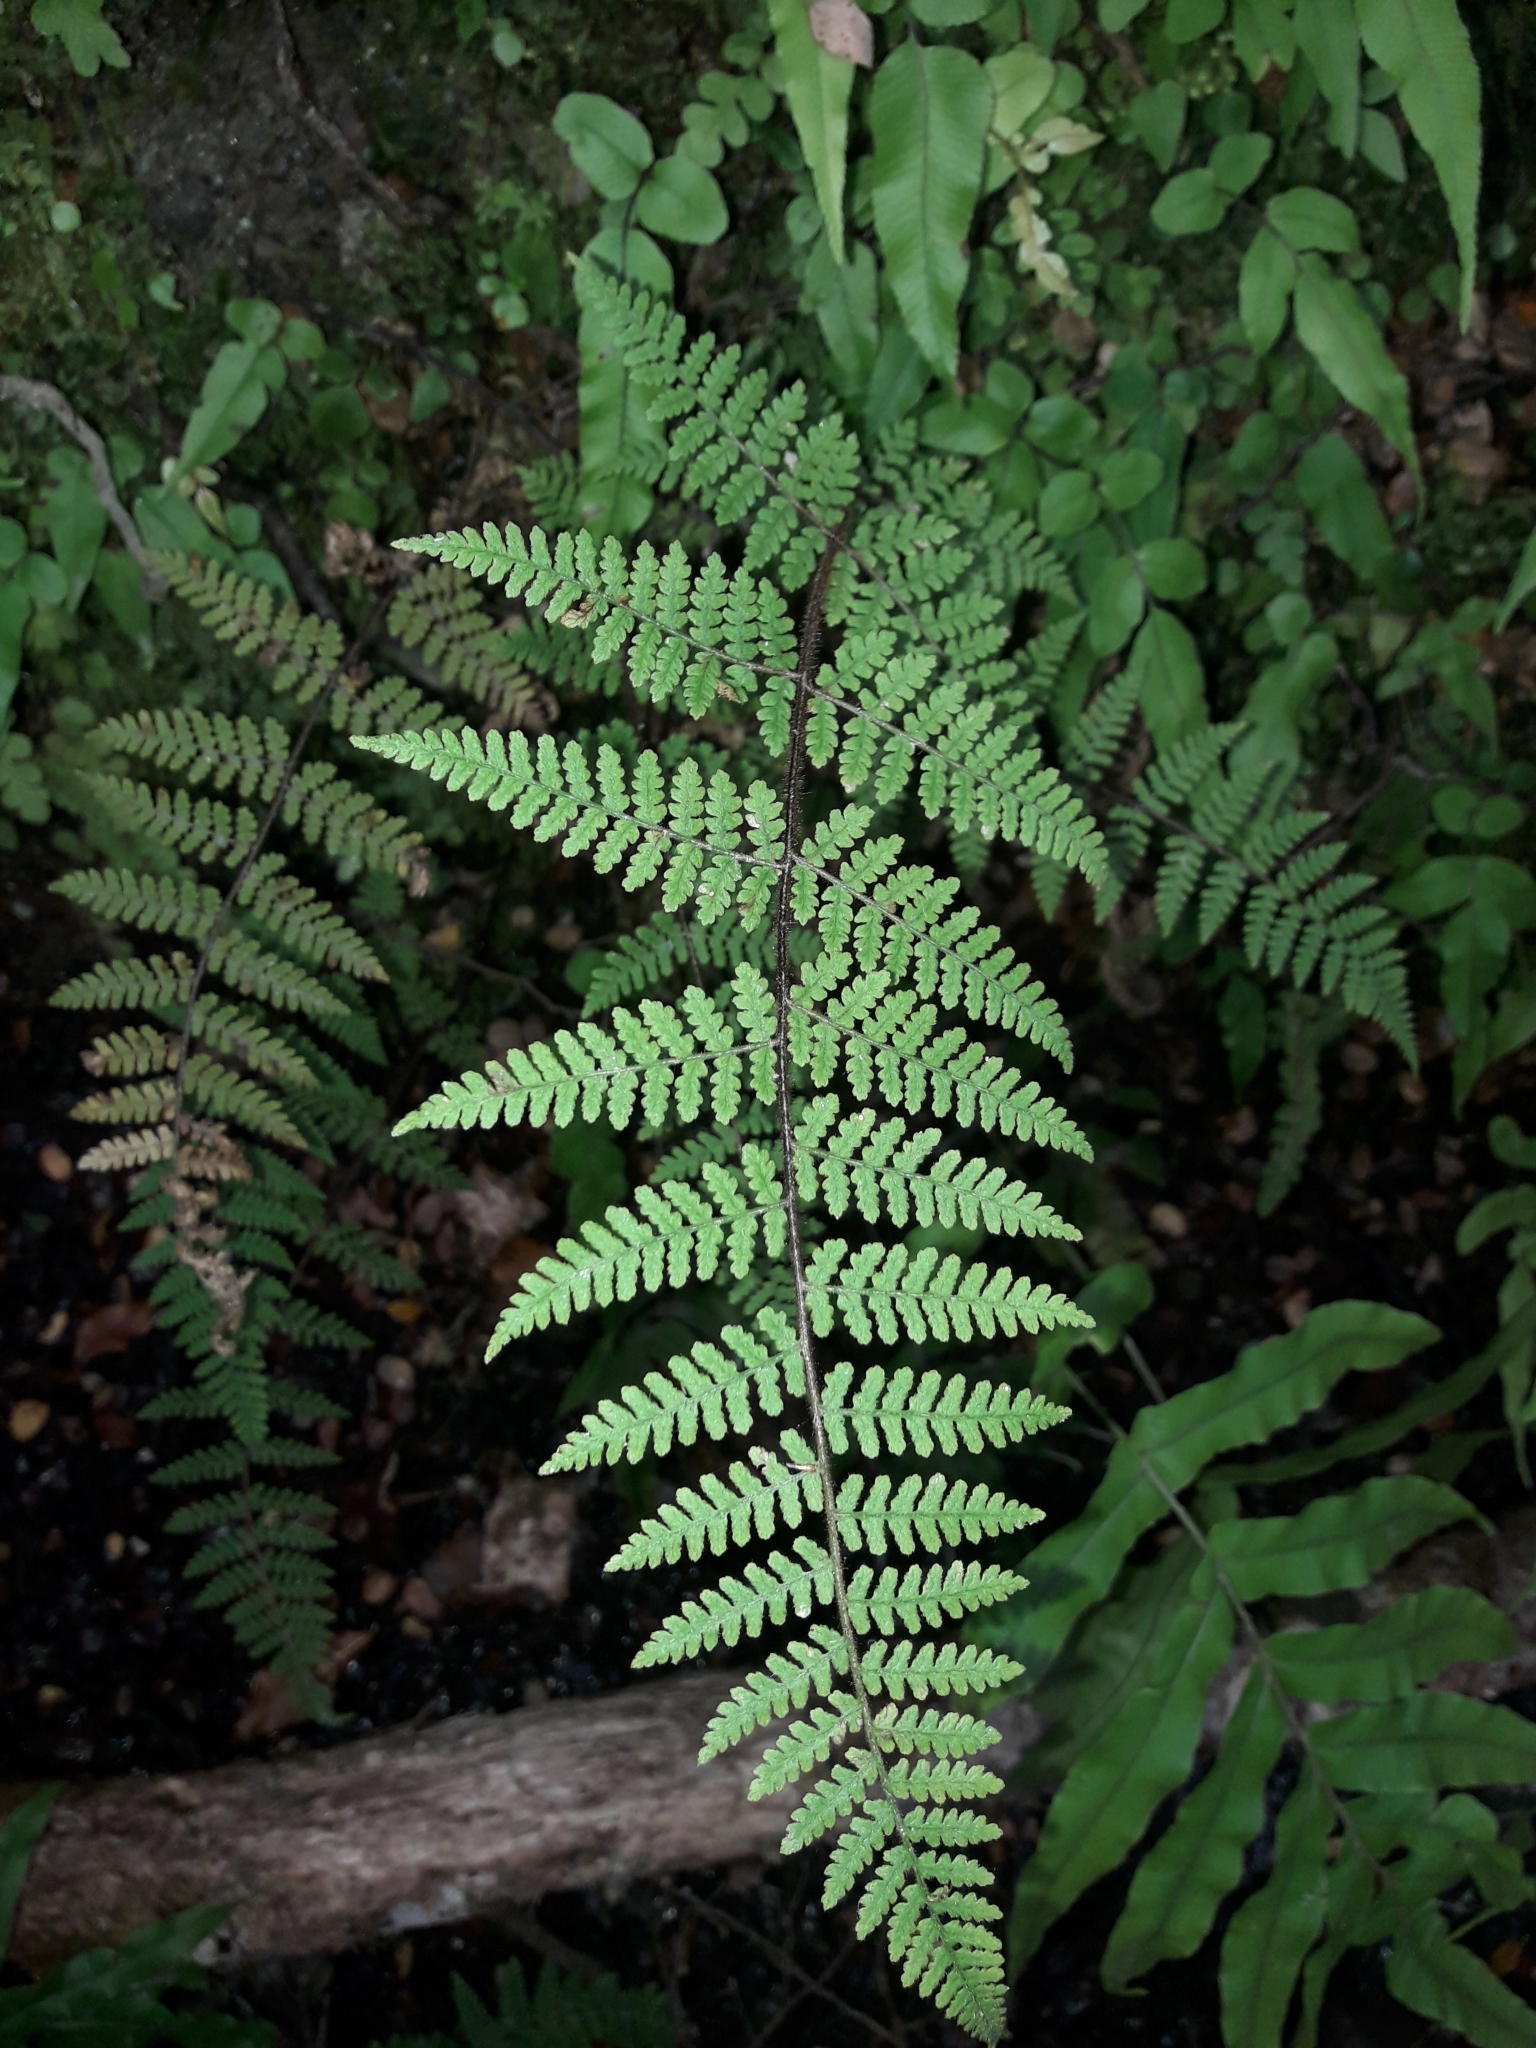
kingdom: Plantae
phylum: Tracheophyta
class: Polypodiopsida
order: Polypodiales
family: Dennstaedtiaceae
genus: Hypolepis
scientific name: Hypolepis rugosula
